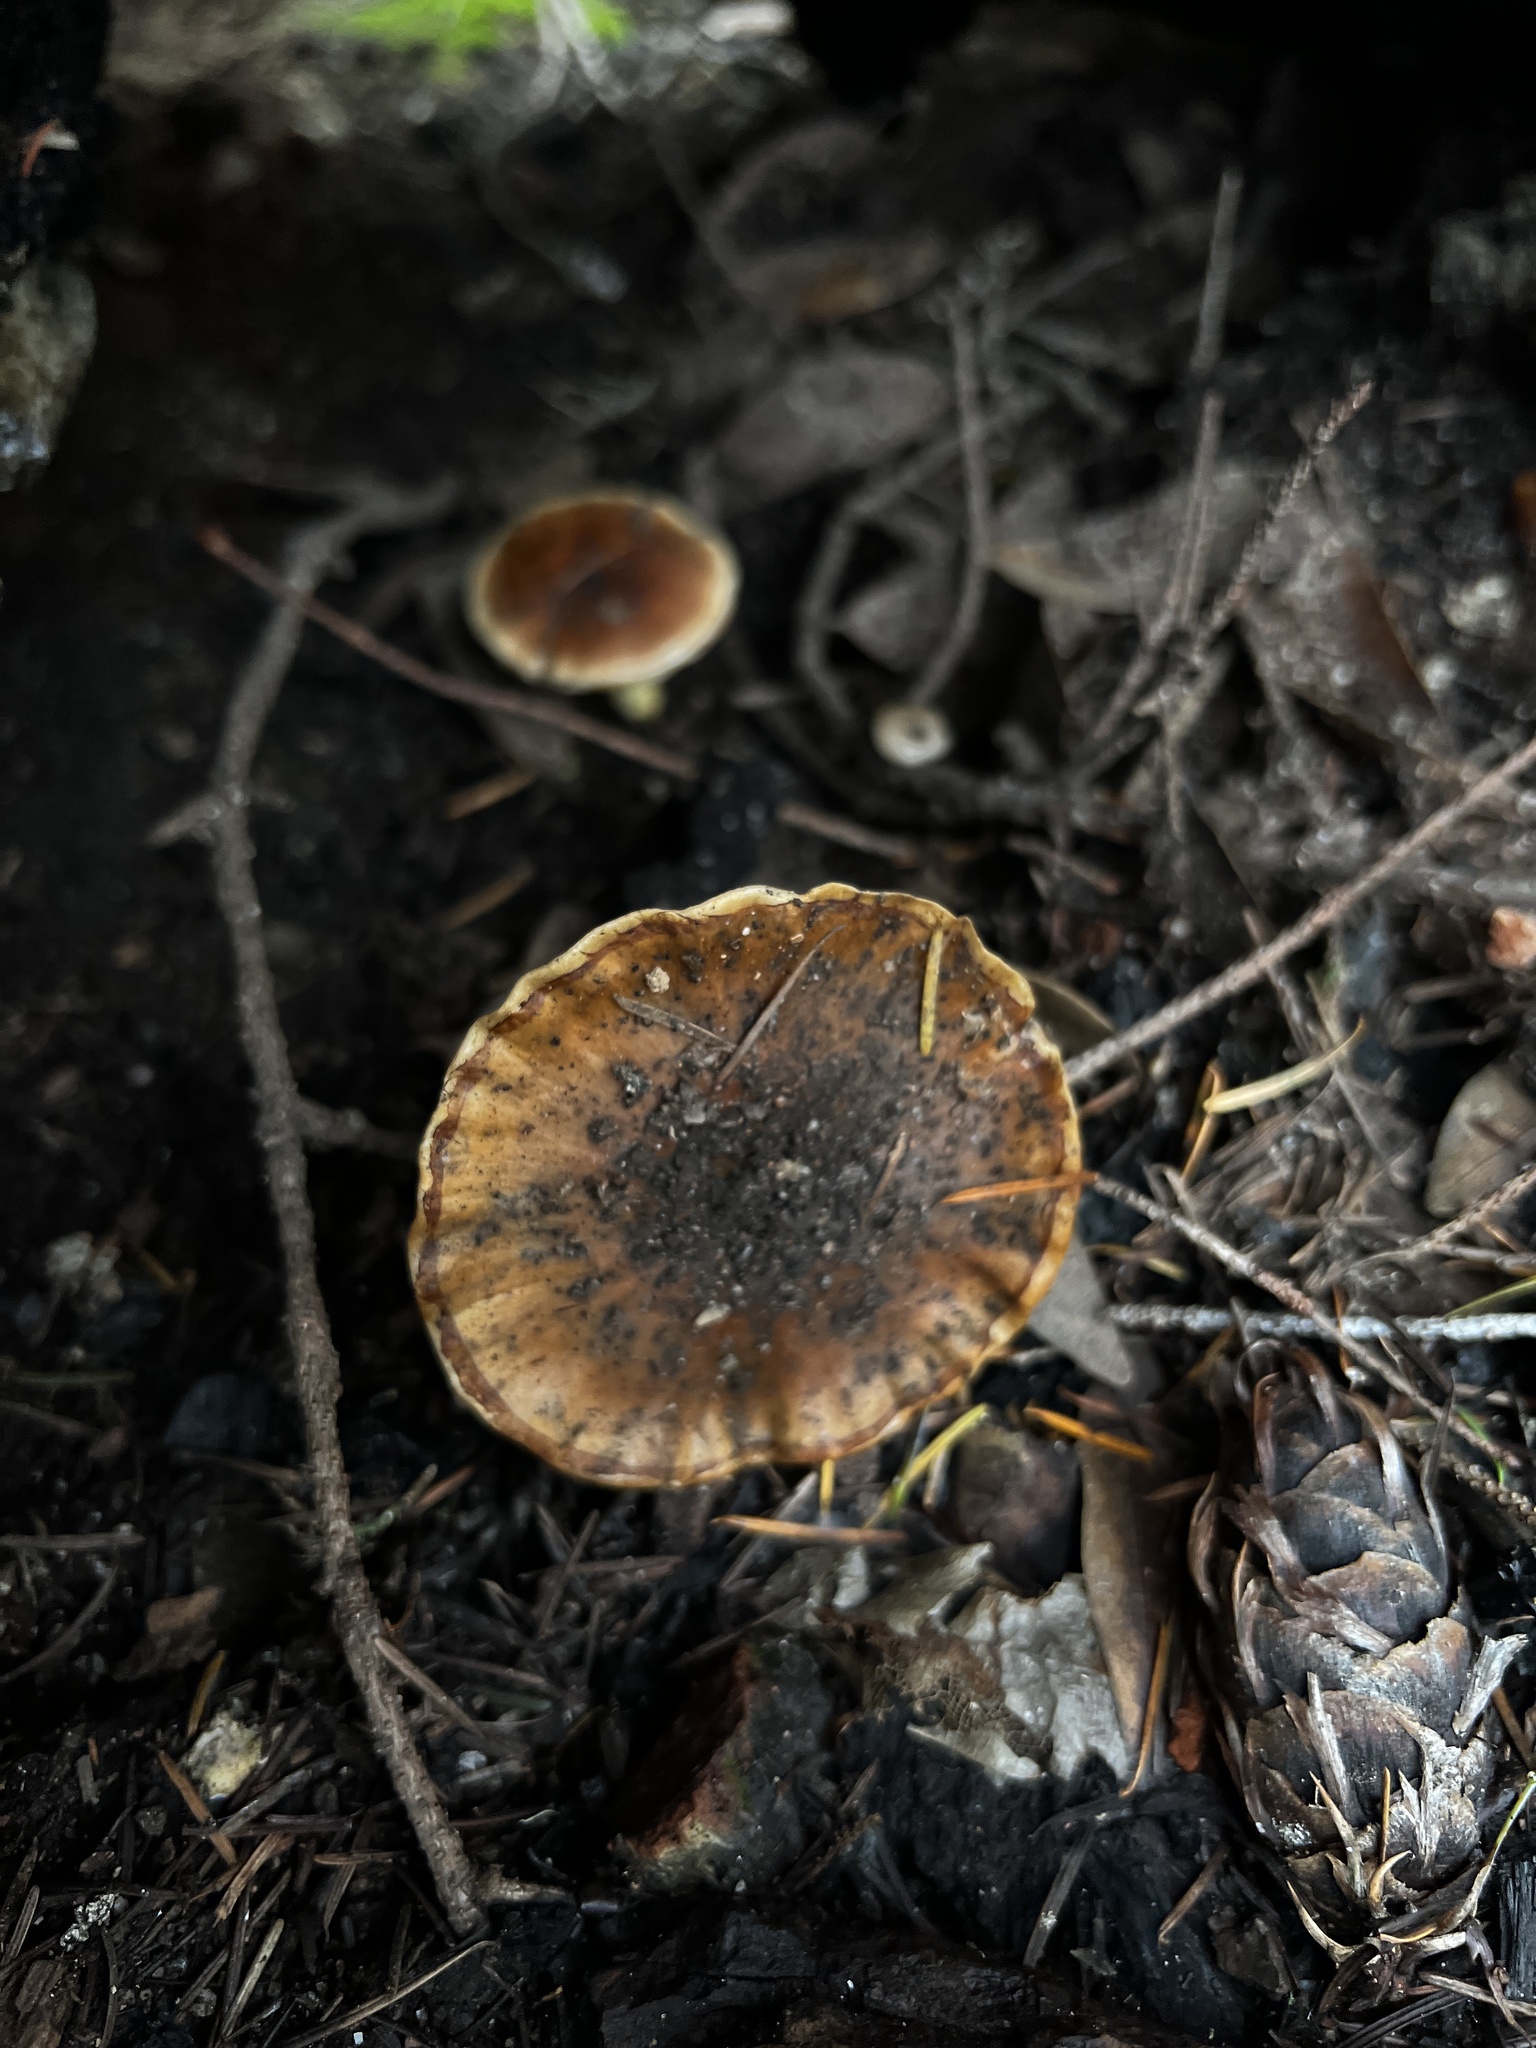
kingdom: Fungi
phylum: Basidiomycota
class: Agaricomycetes
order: Agaricales
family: Strophariaceae
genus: Pholiota
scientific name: Pholiota brunnescens
